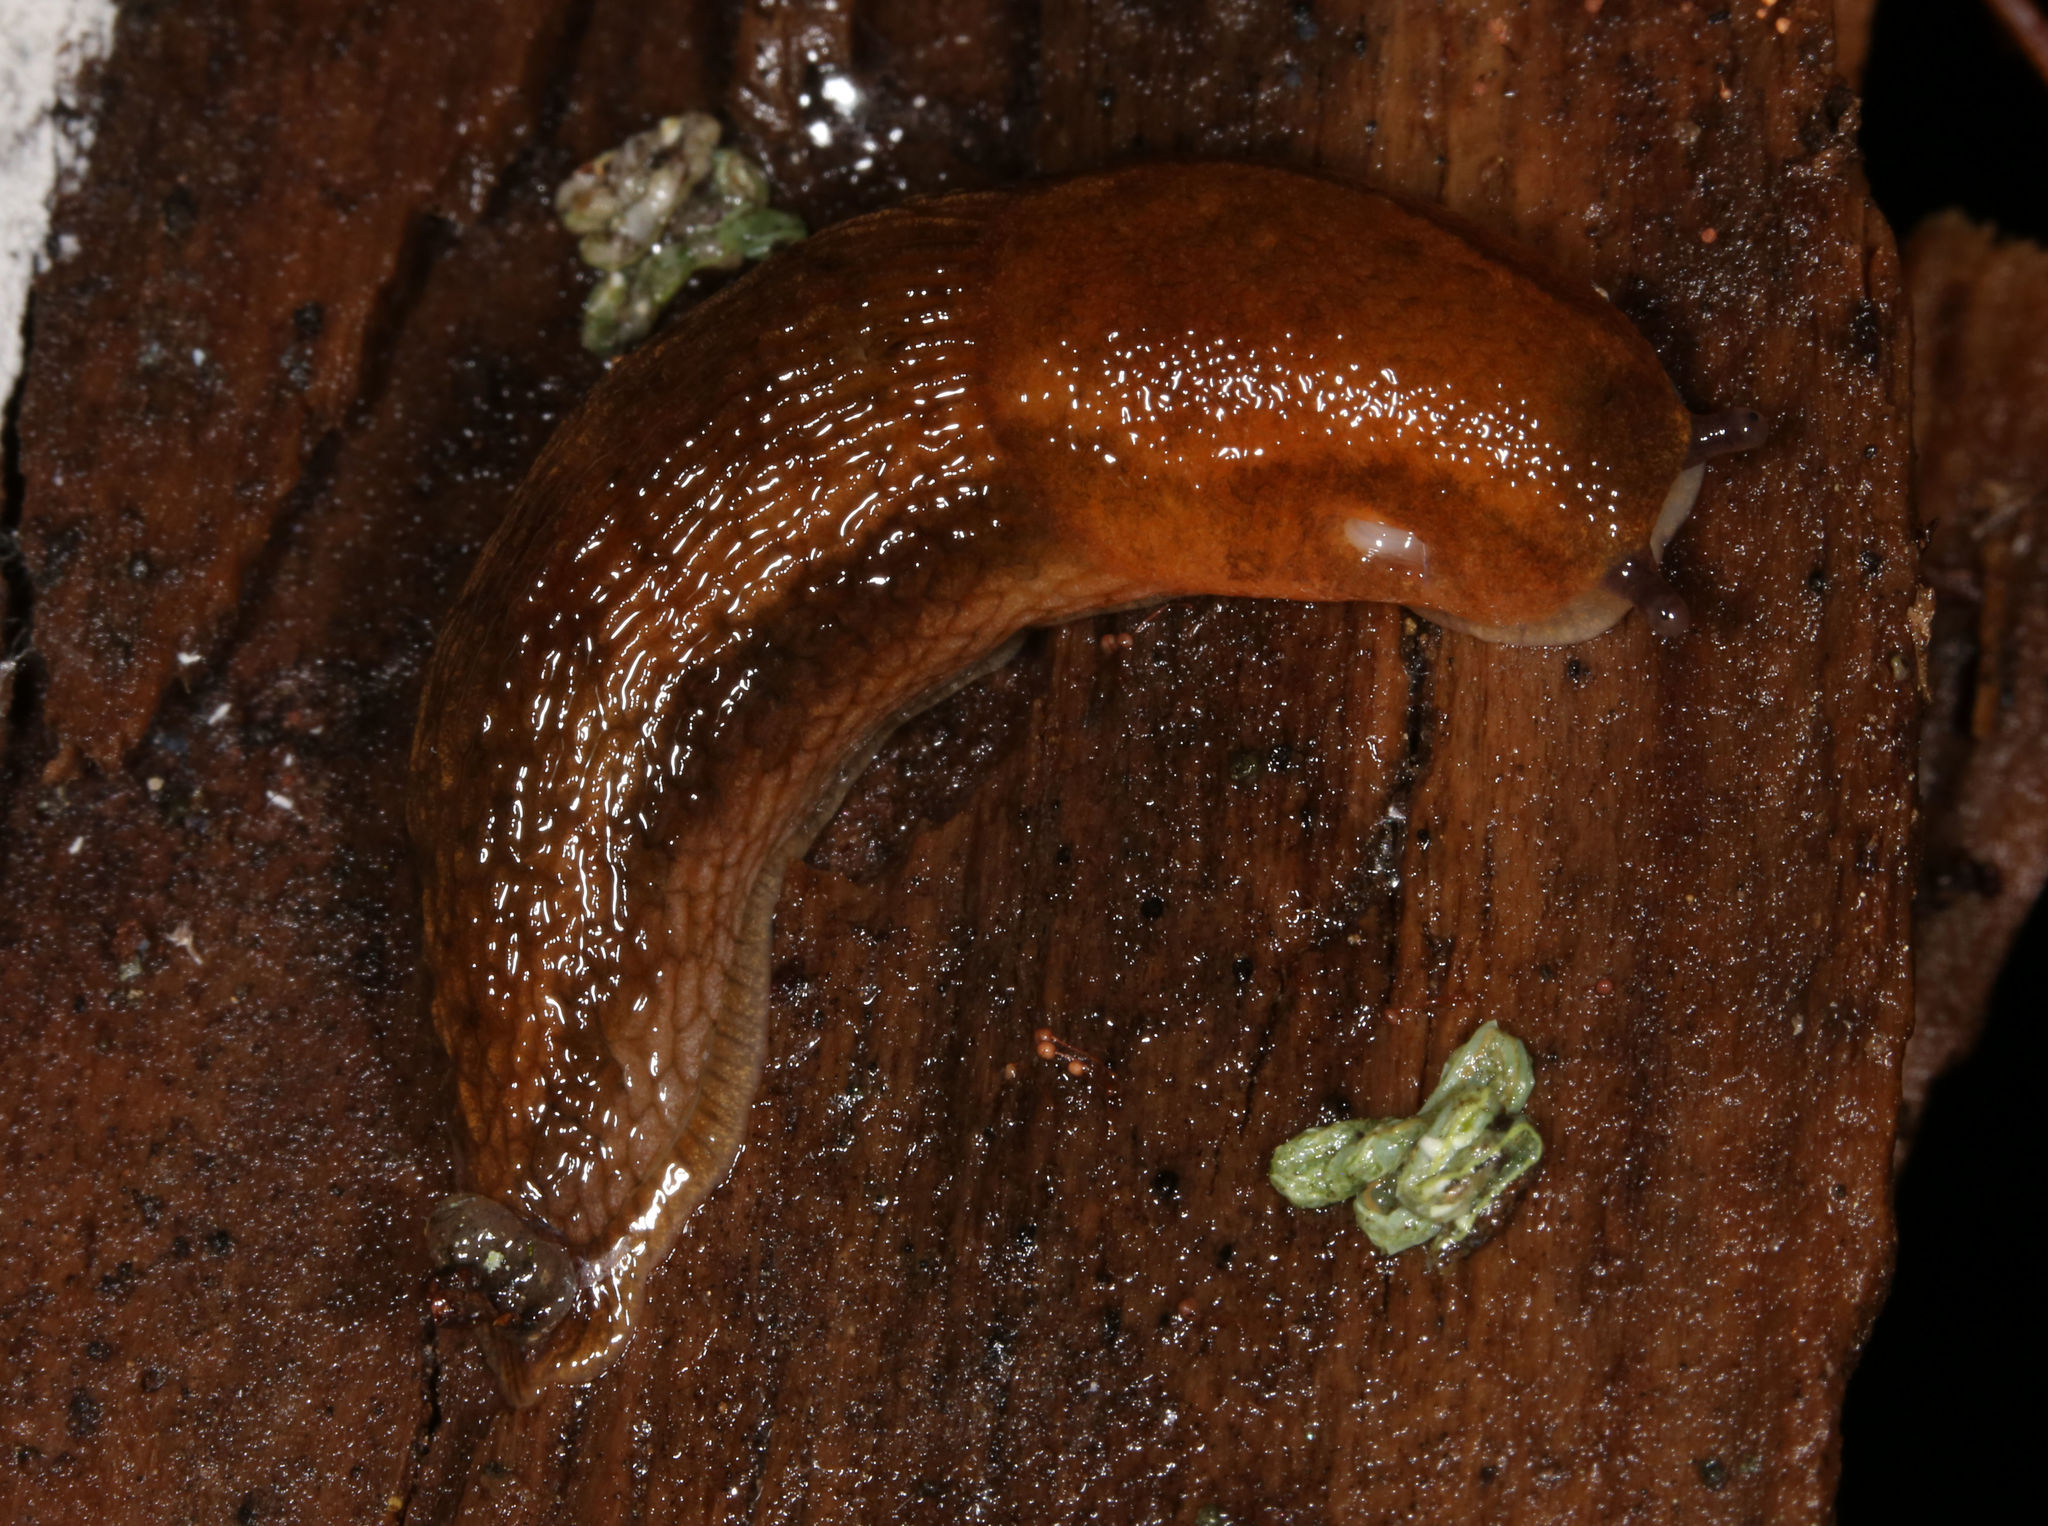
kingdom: Animalia
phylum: Mollusca
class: Gastropoda
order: Stylommatophora
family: Arionidae
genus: Arion
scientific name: Arion subfuscus
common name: Dusky arion
